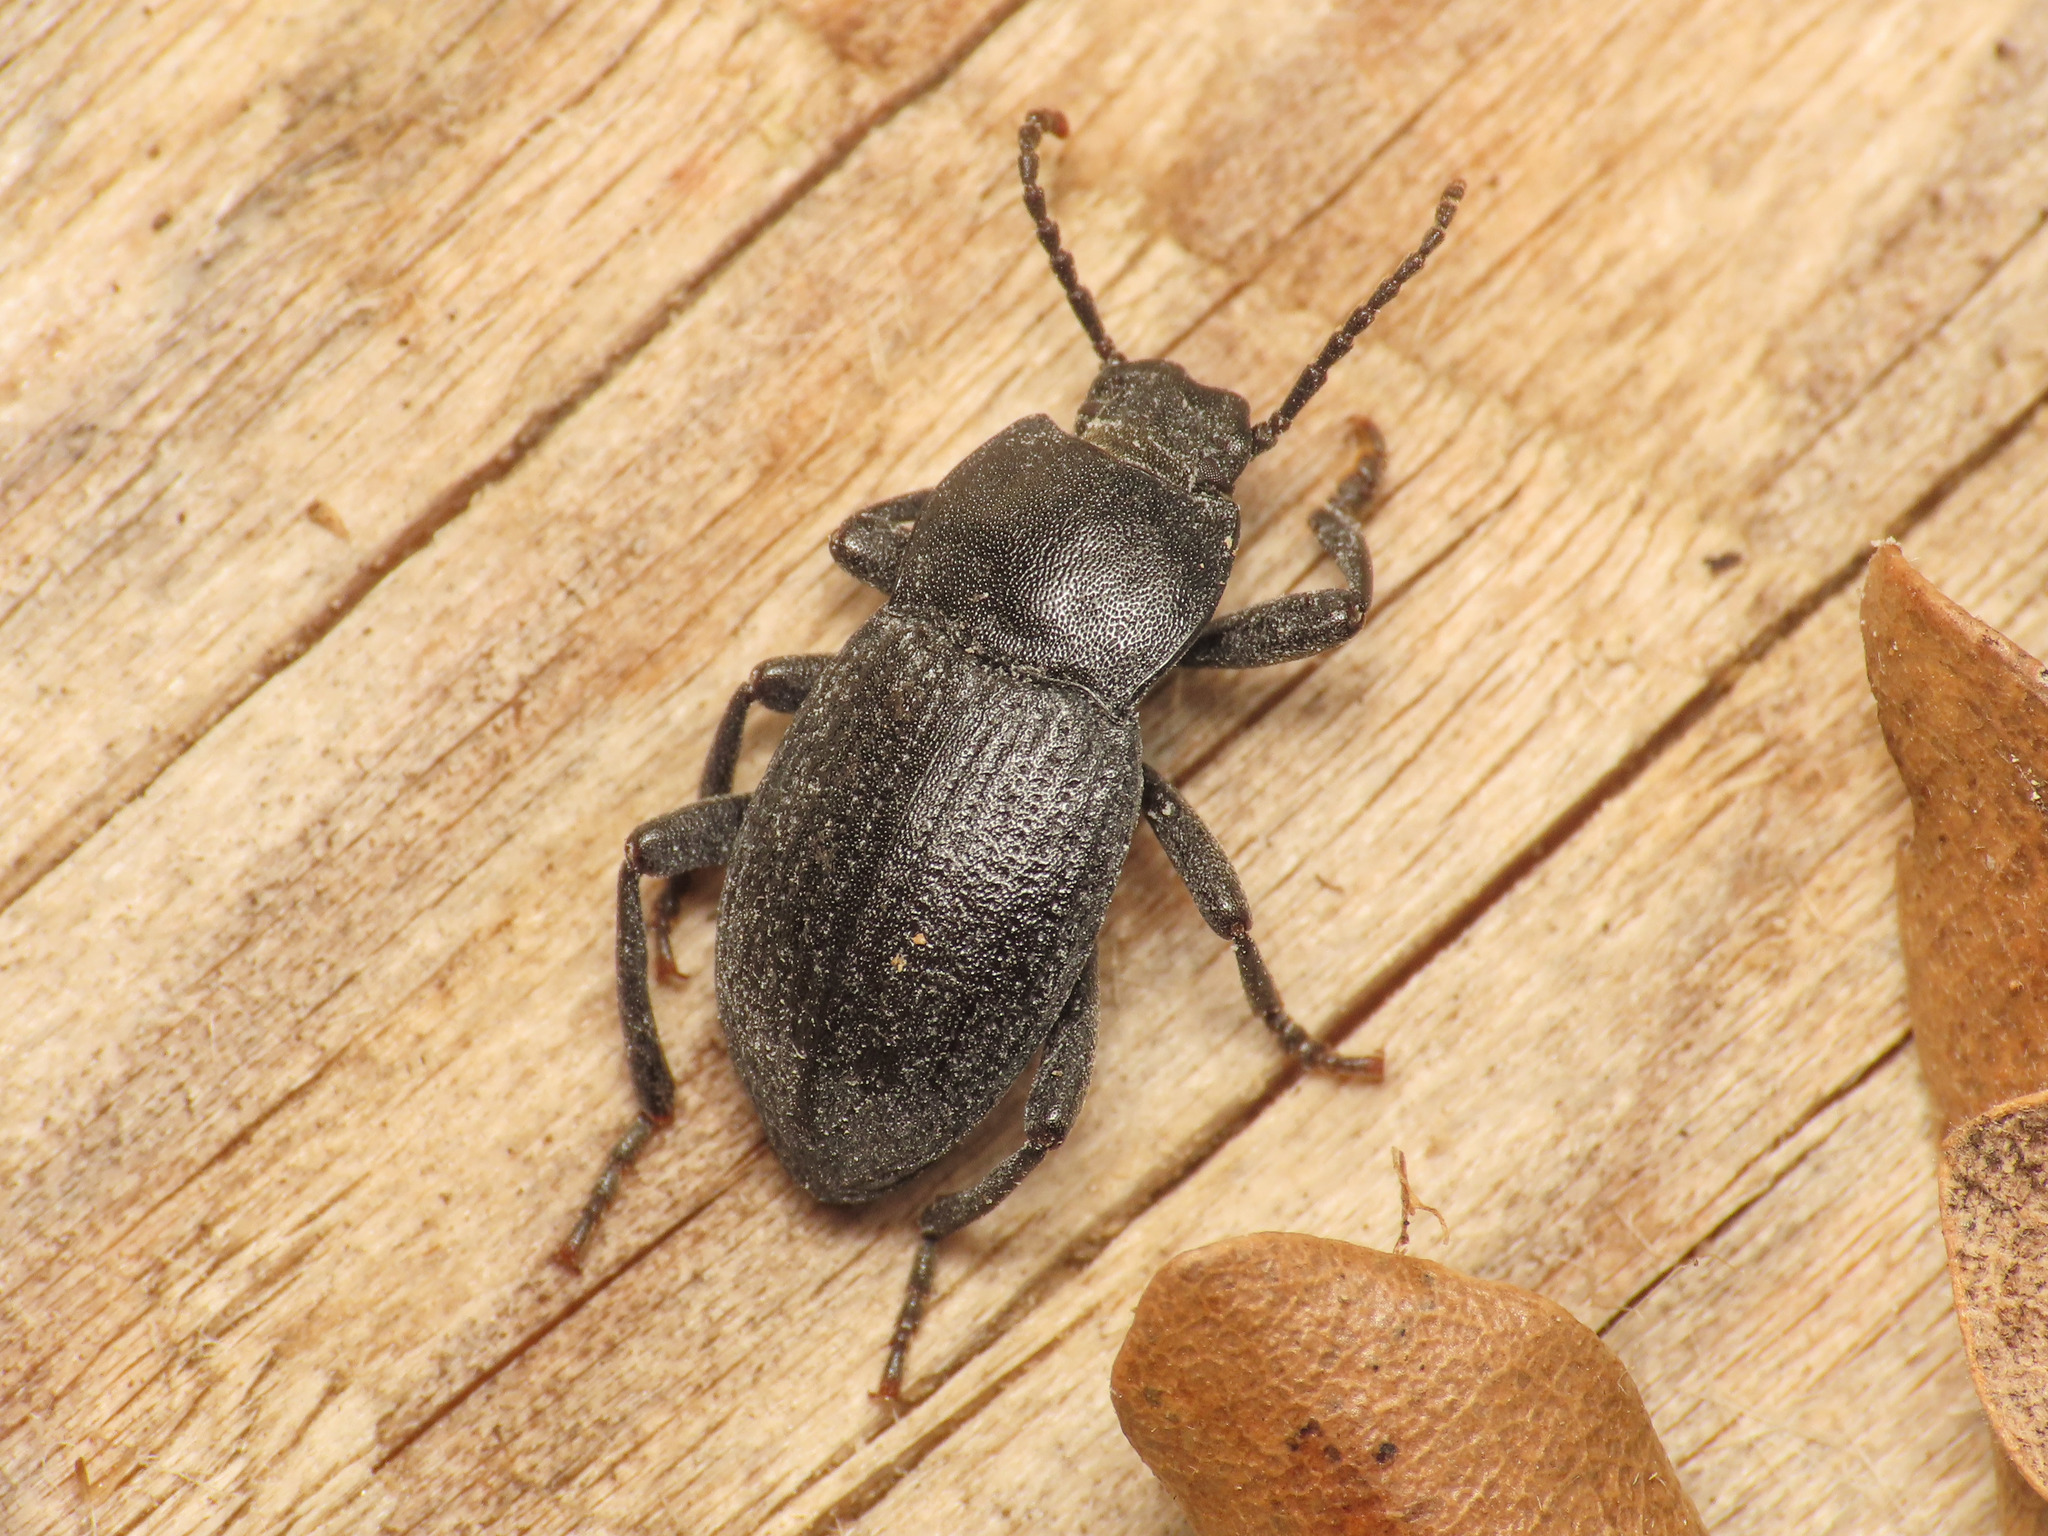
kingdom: Animalia
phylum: Arthropoda
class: Insecta
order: Coleoptera
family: Tenebrionidae
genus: Dendarus
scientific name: Dendarus dalmatinus
